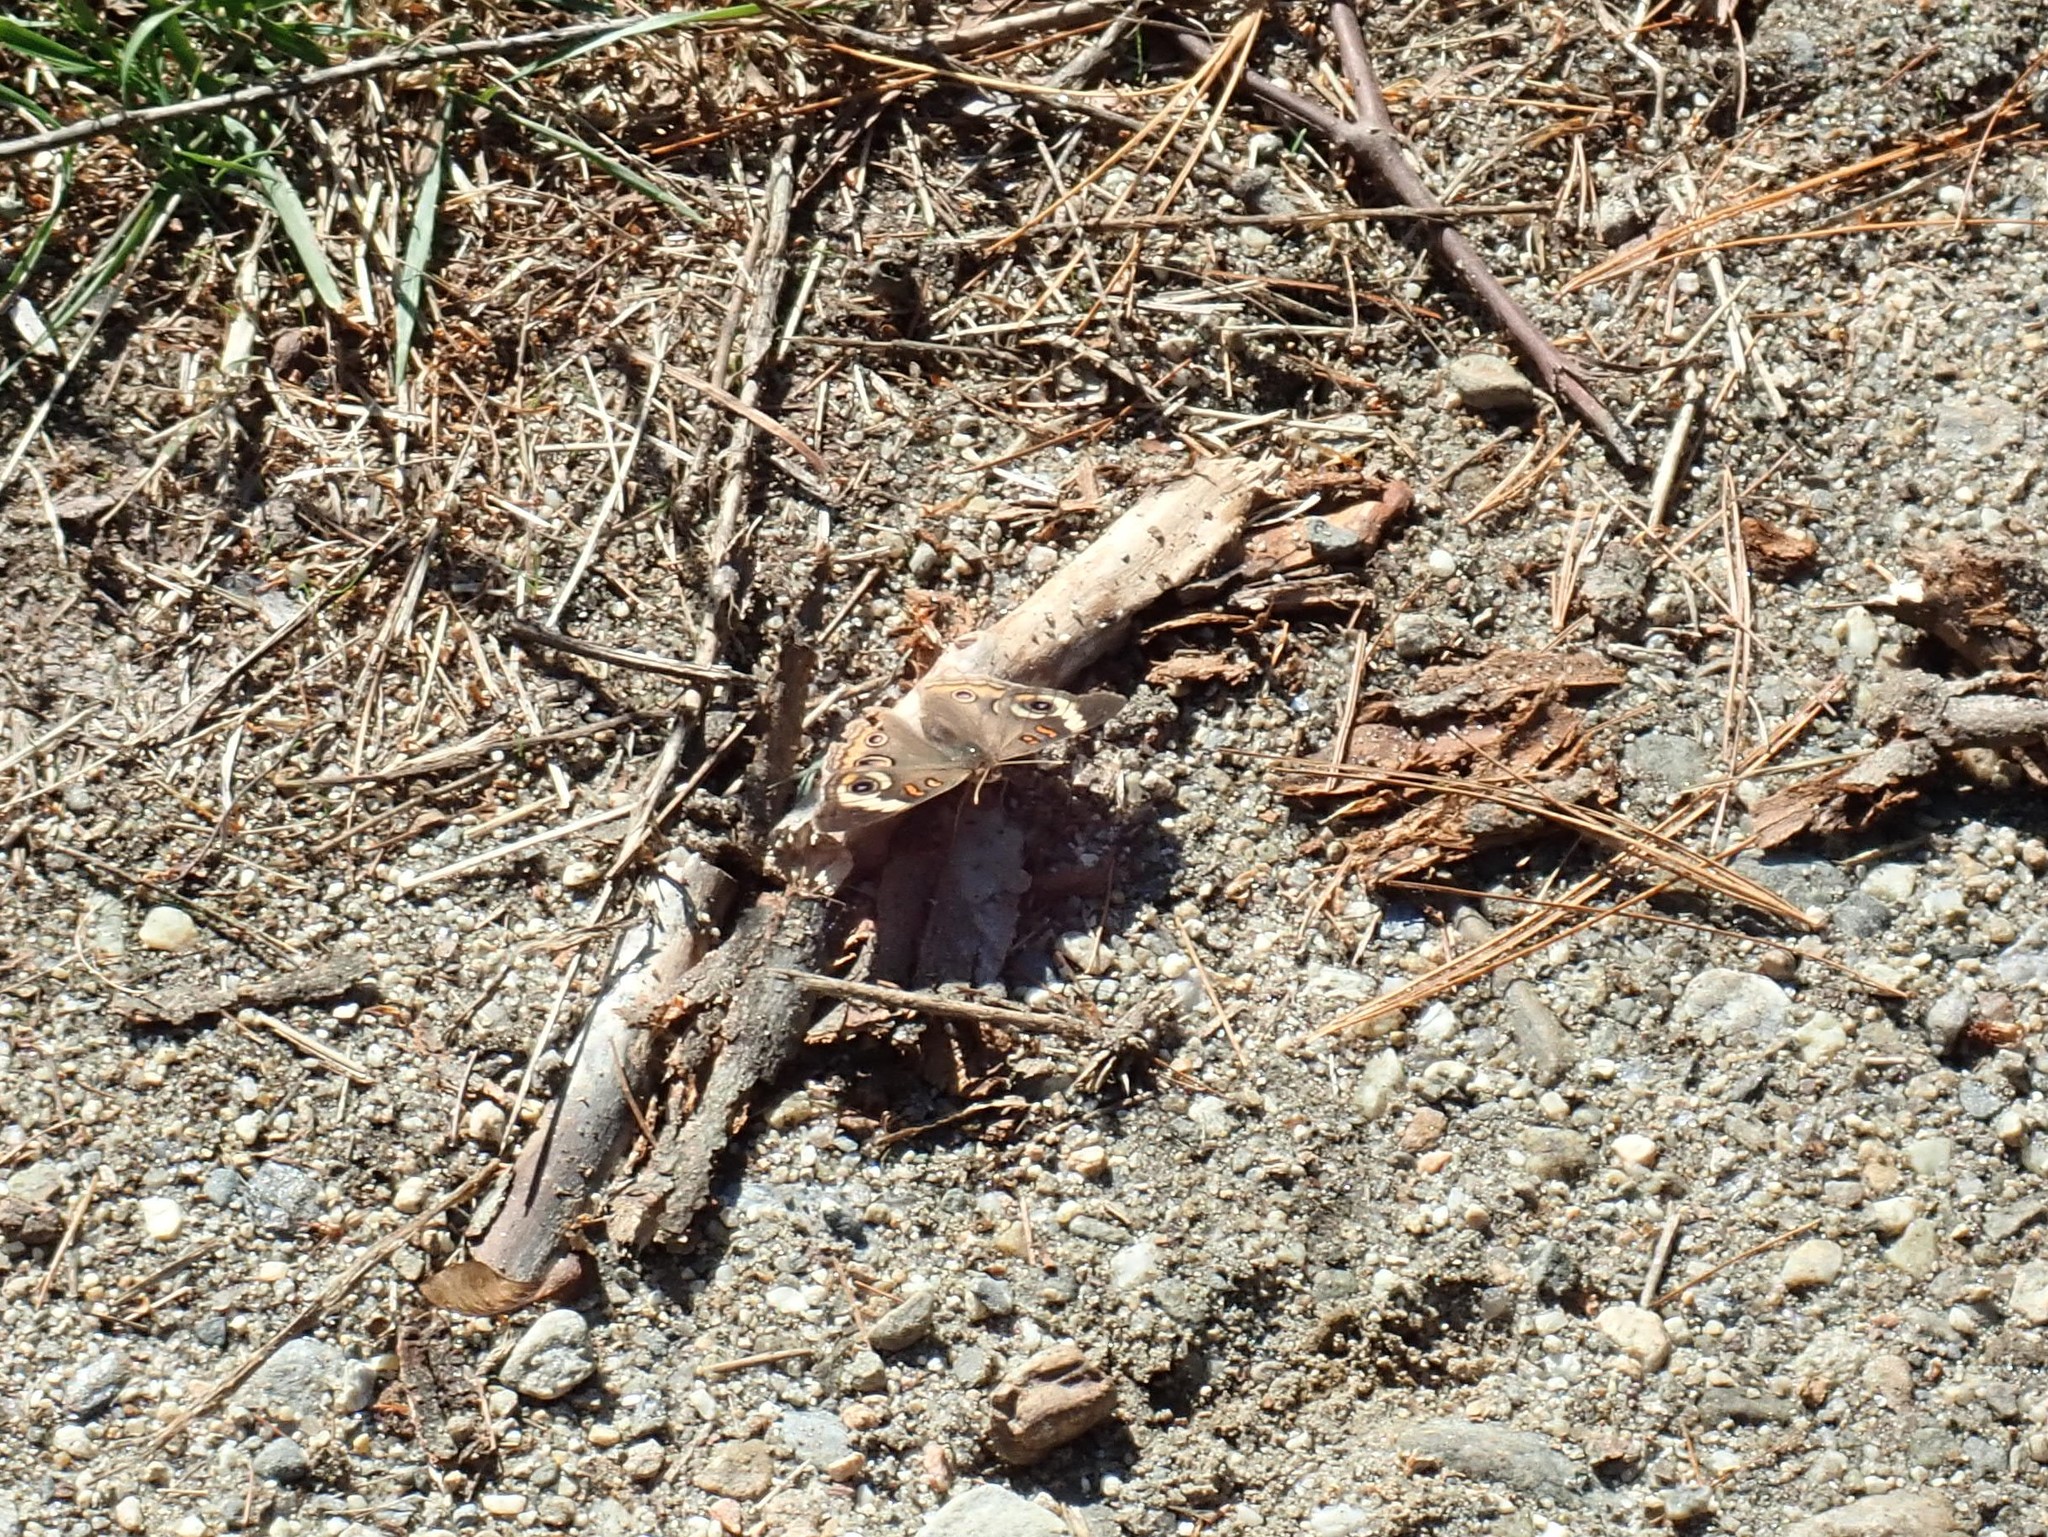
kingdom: Animalia
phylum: Arthropoda
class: Insecta
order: Lepidoptera
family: Nymphalidae
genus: Junonia
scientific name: Junonia coenia
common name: Common buckeye
